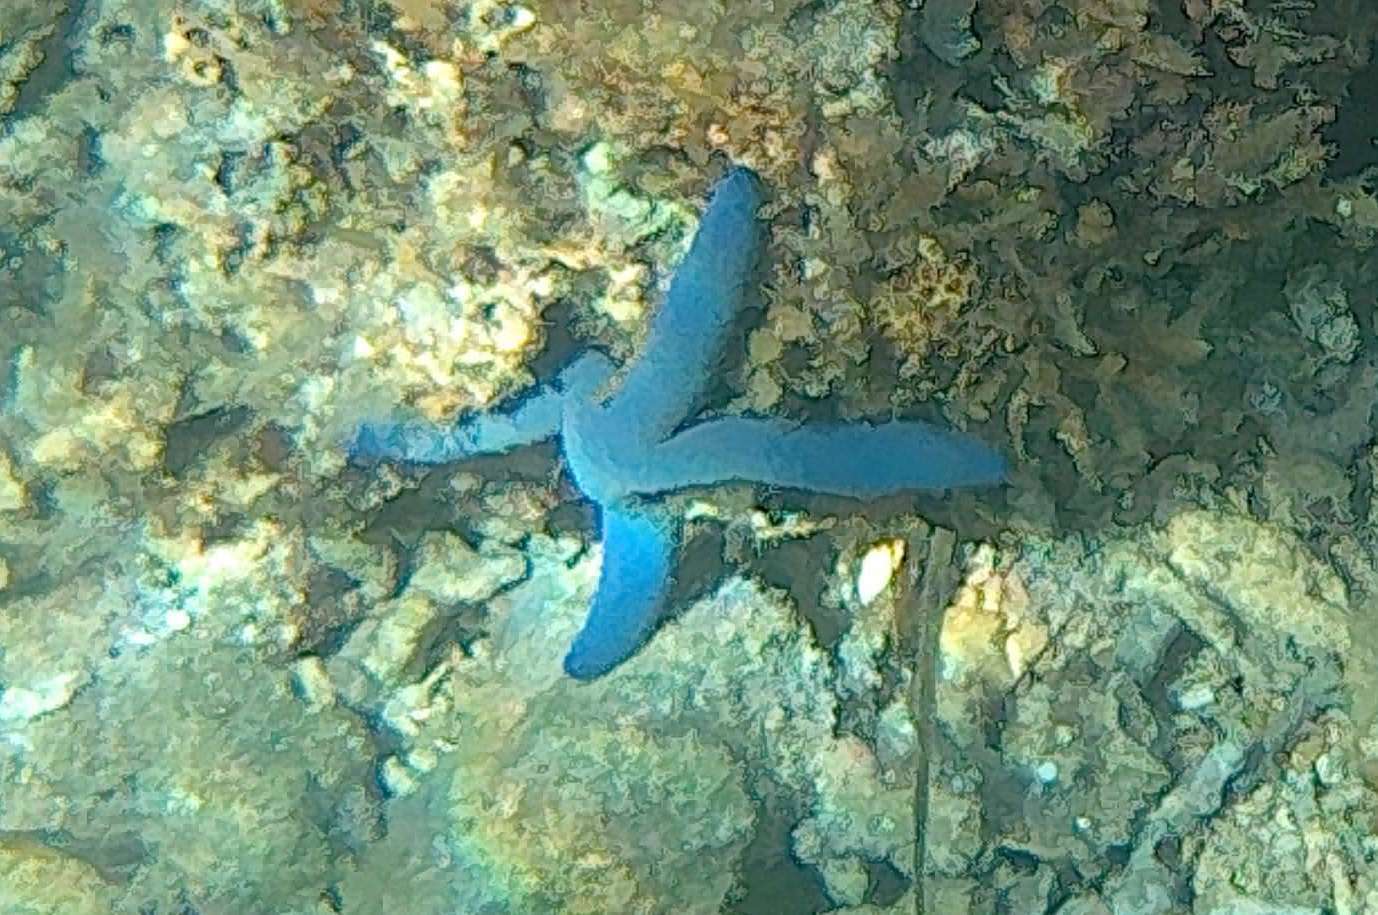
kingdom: Animalia
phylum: Echinodermata
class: Asteroidea
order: Valvatida
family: Ophidiasteridae
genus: Linckia
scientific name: Linckia laevigata
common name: Azure sea star
